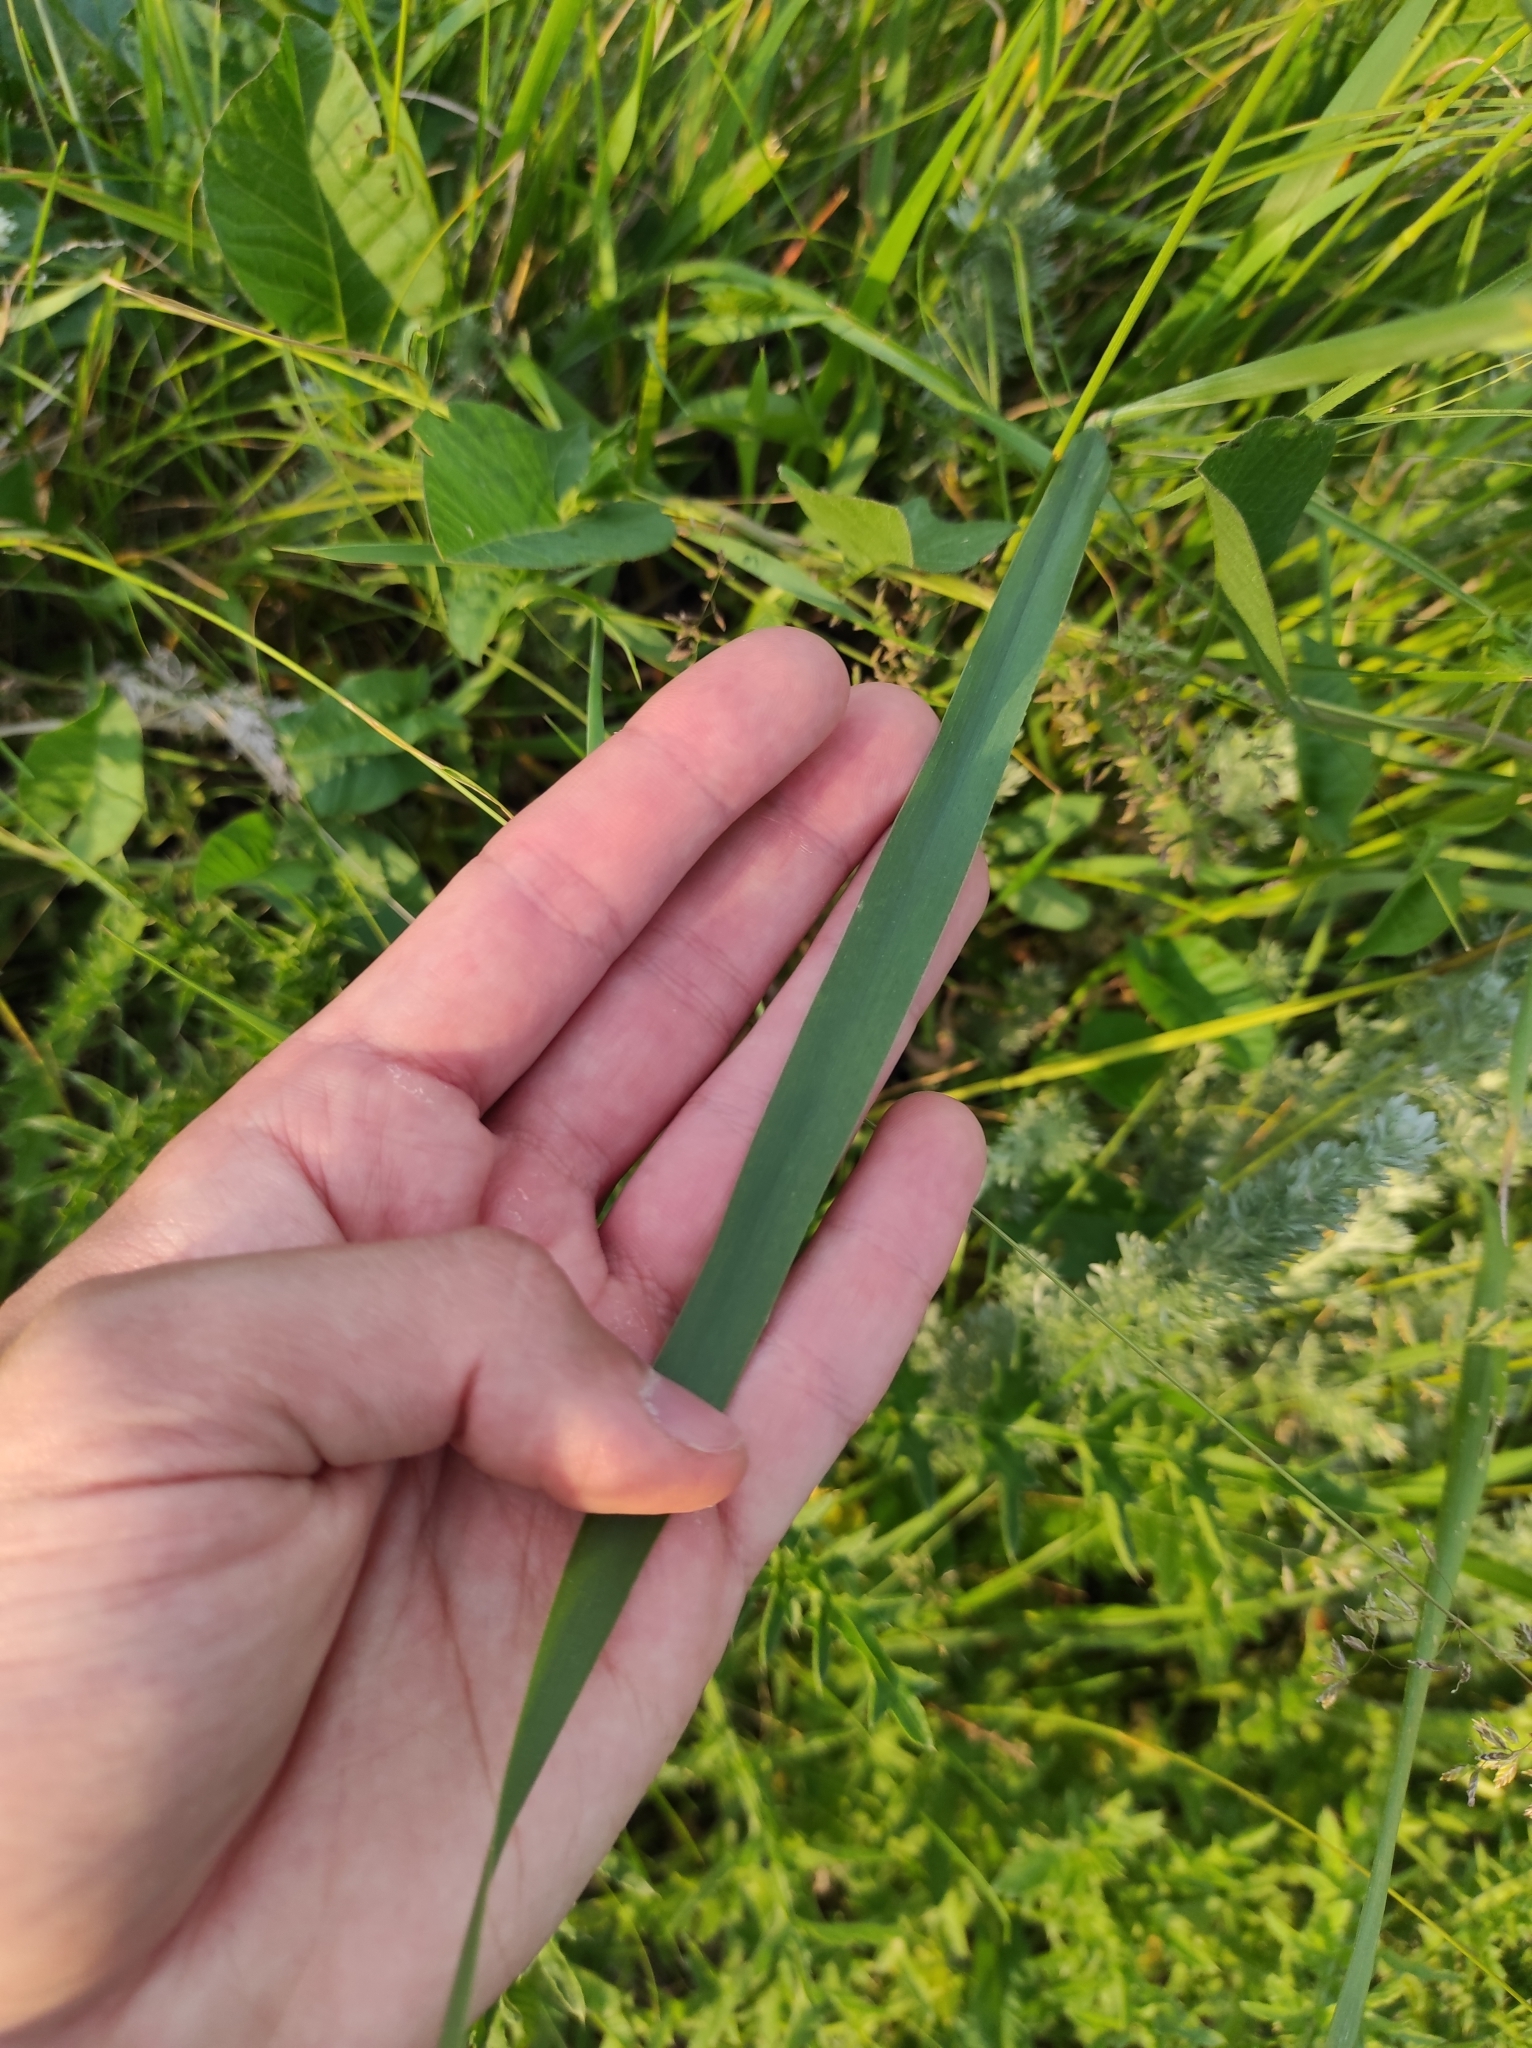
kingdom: Plantae
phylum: Tracheophyta
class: Liliopsida
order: Poales
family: Poaceae
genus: Bromus
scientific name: Bromus riparius
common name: Meadow brome
